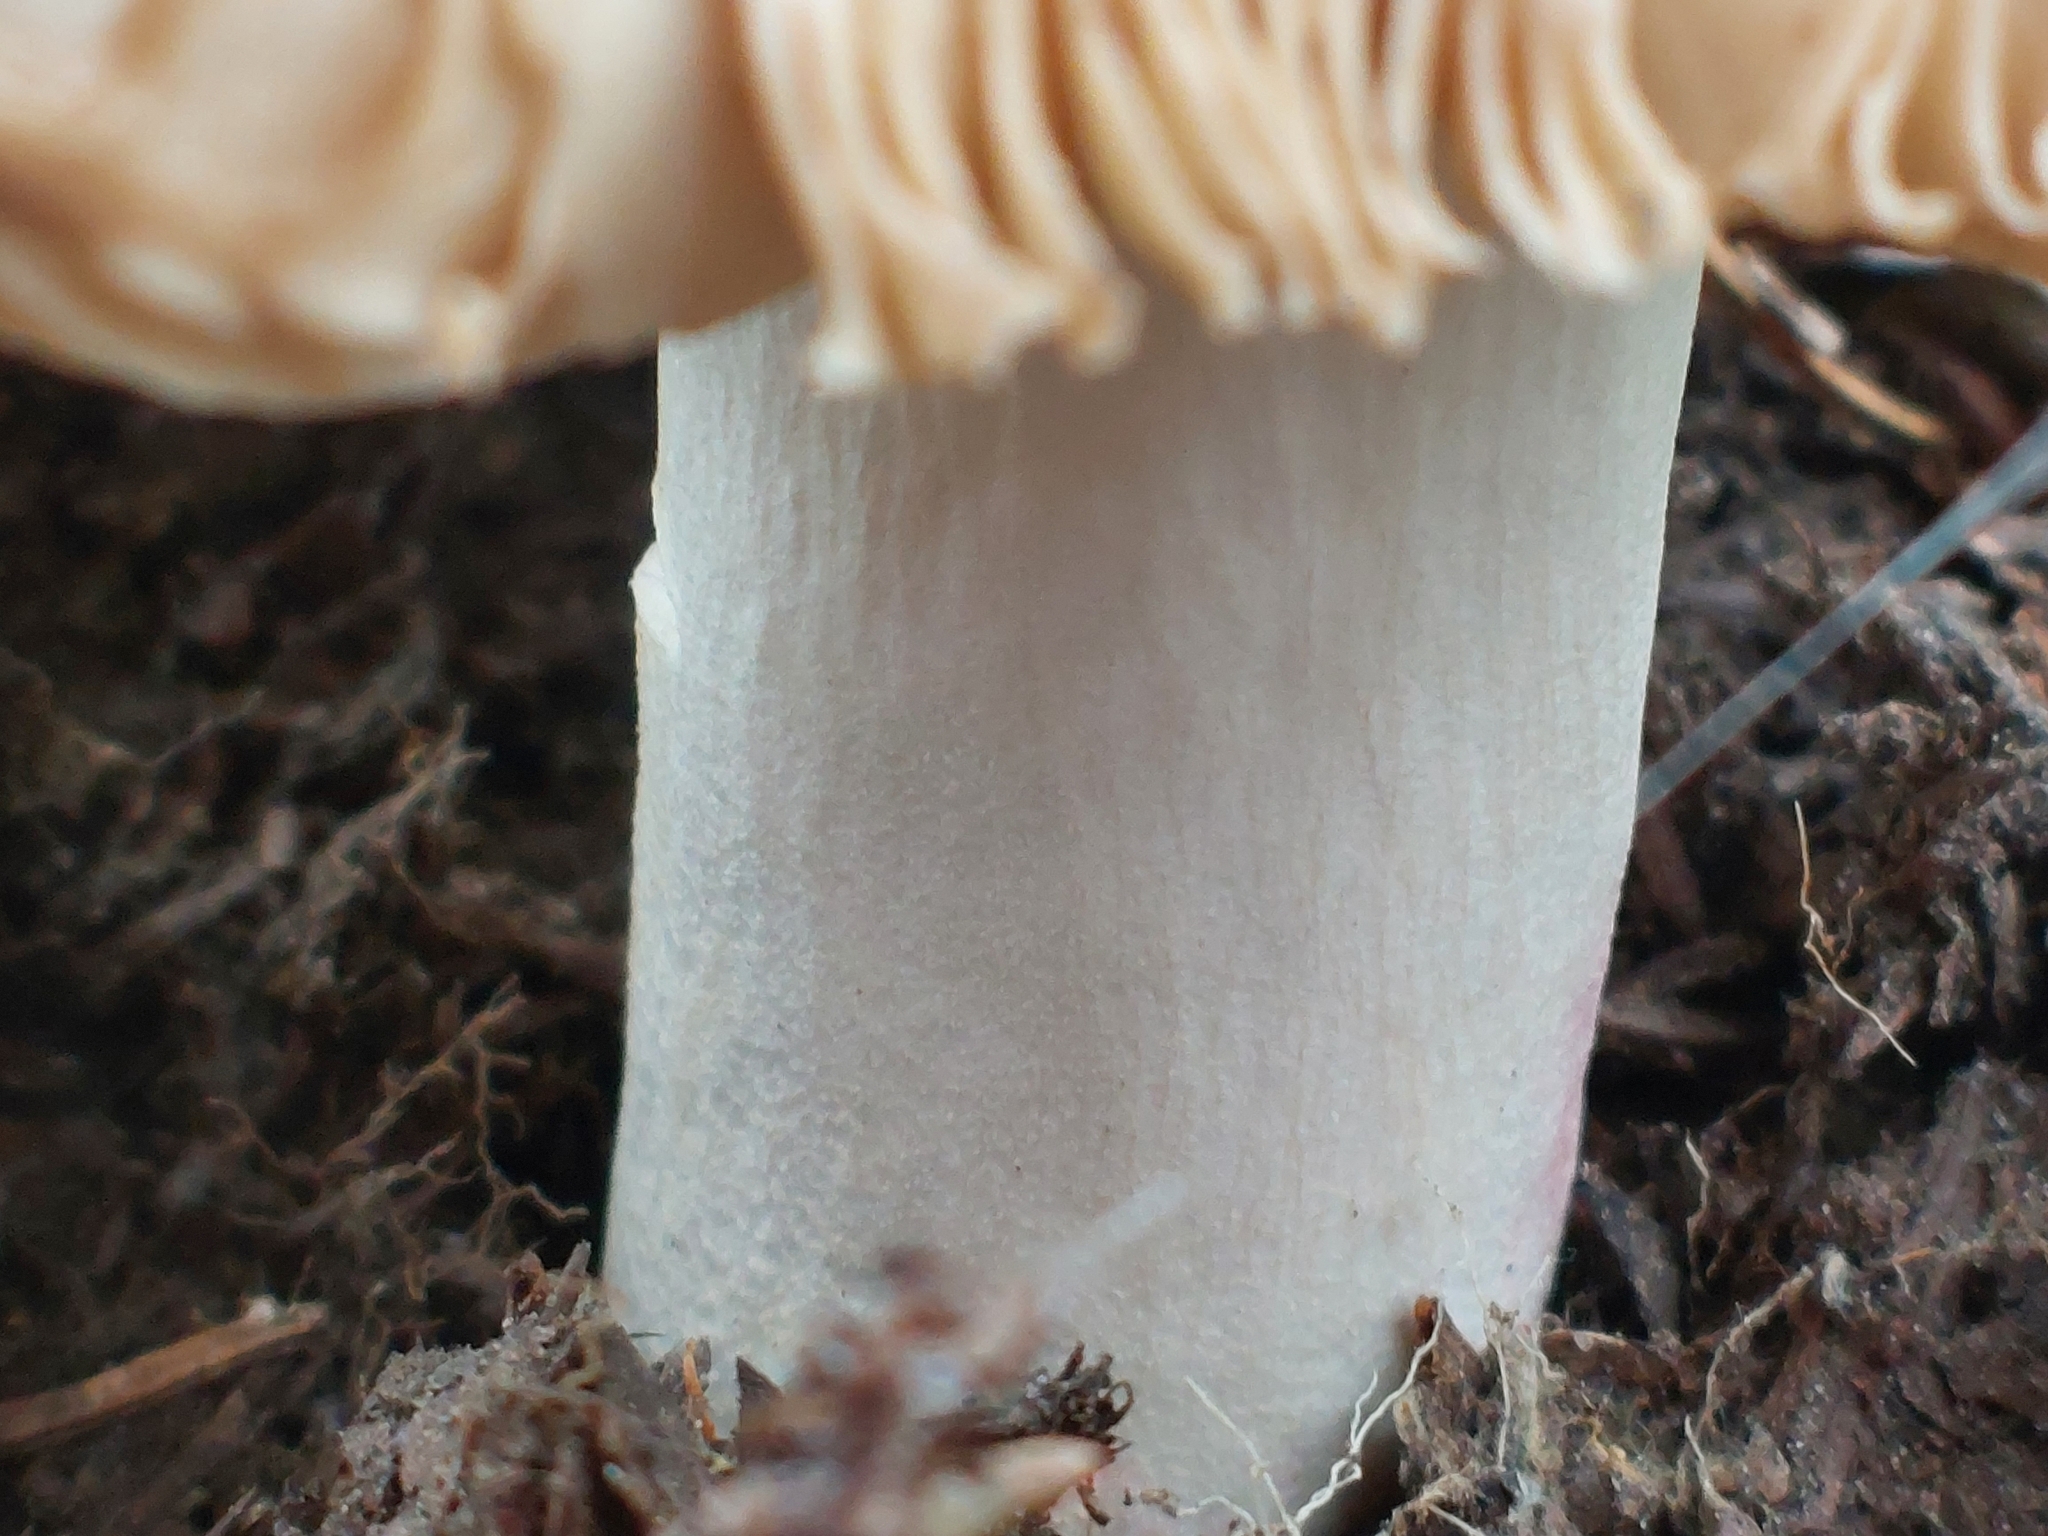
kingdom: Fungi
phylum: Basidiomycota
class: Agaricomycetes
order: Russulales
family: Russulaceae
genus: Russula
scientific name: Russula
